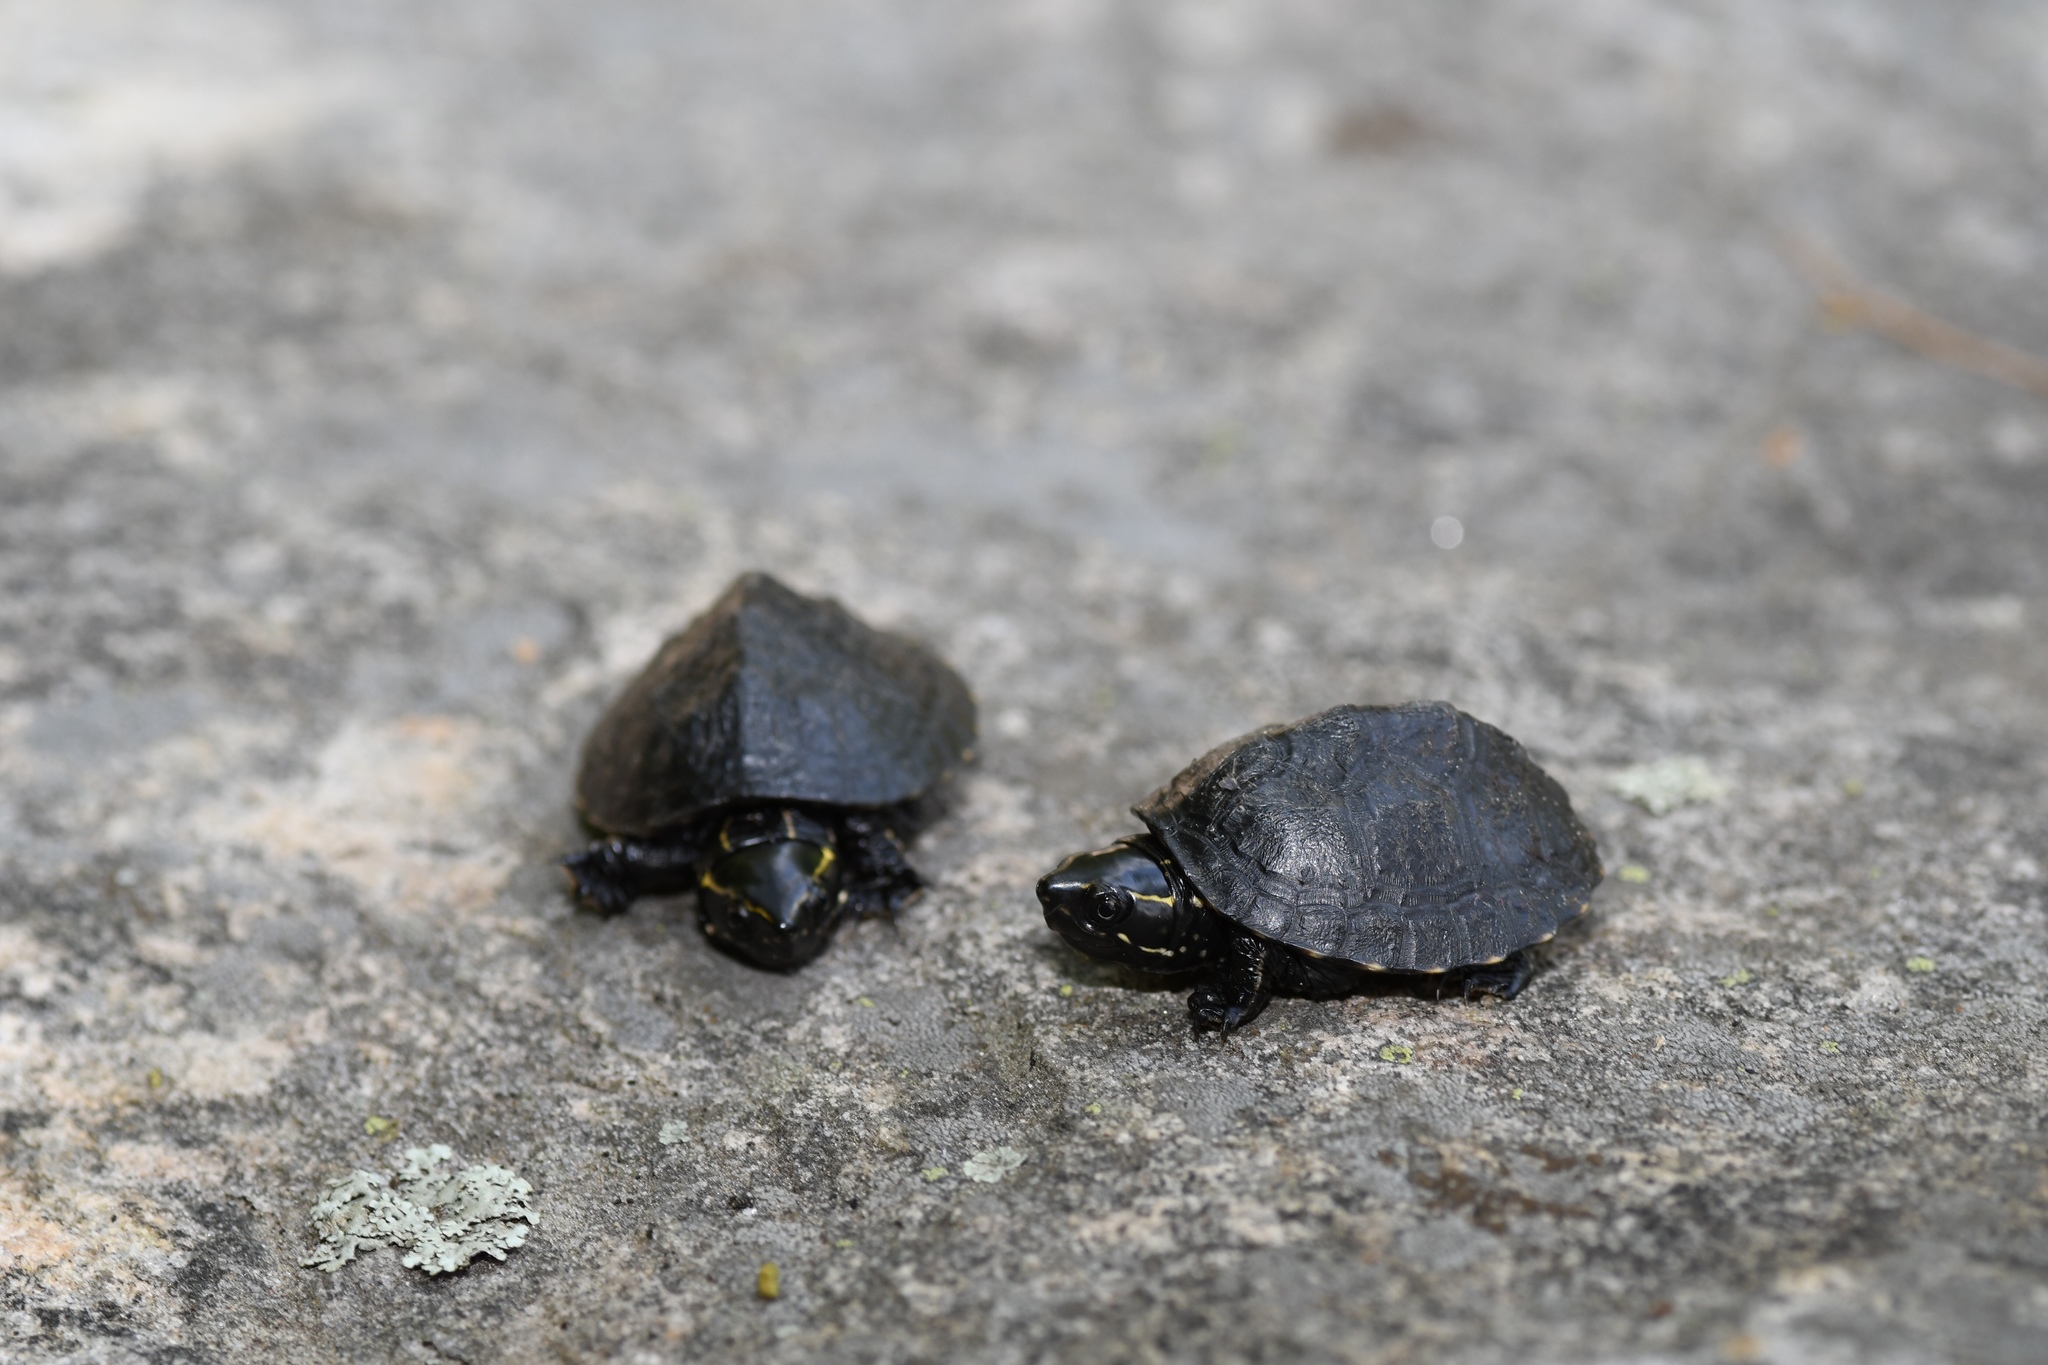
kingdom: Animalia
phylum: Chordata
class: Testudines
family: Kinosternidae
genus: Sternotherus
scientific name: Sternotherus odoratus
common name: Common musk turtle
